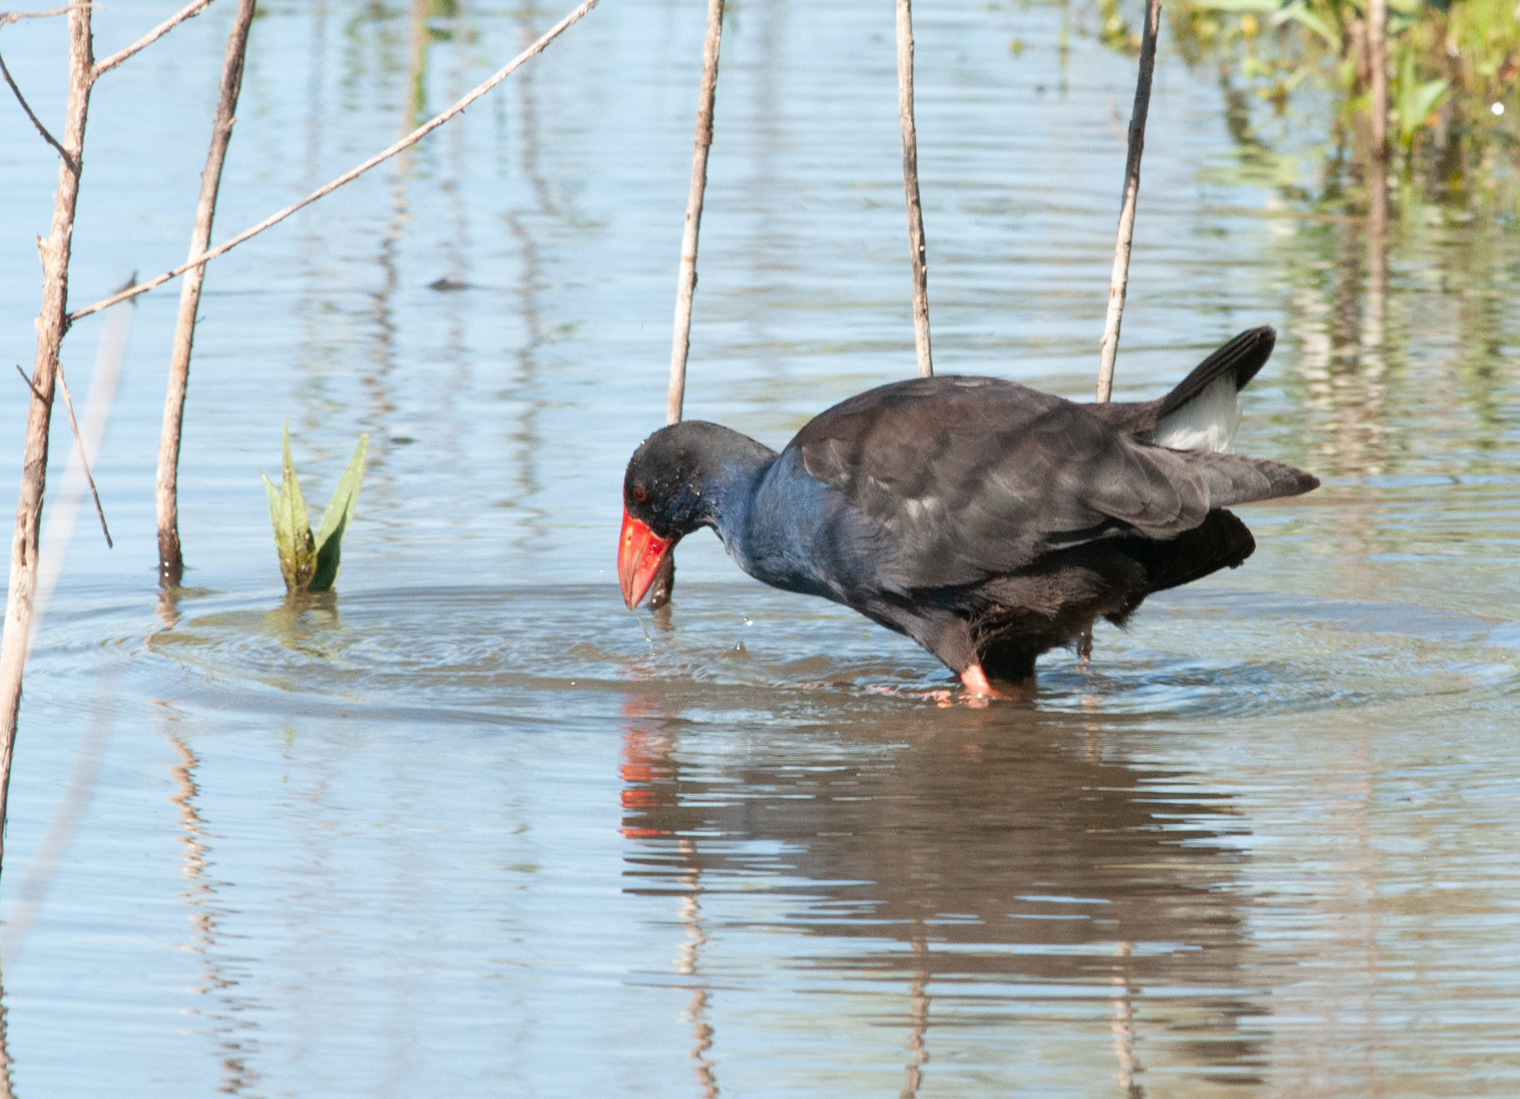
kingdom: Animalia
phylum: Chordata
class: Aves
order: Gruiformes
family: Rallidae
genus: Porphyrio
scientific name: Porphyrio melanotus
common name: Australasian swamphen
